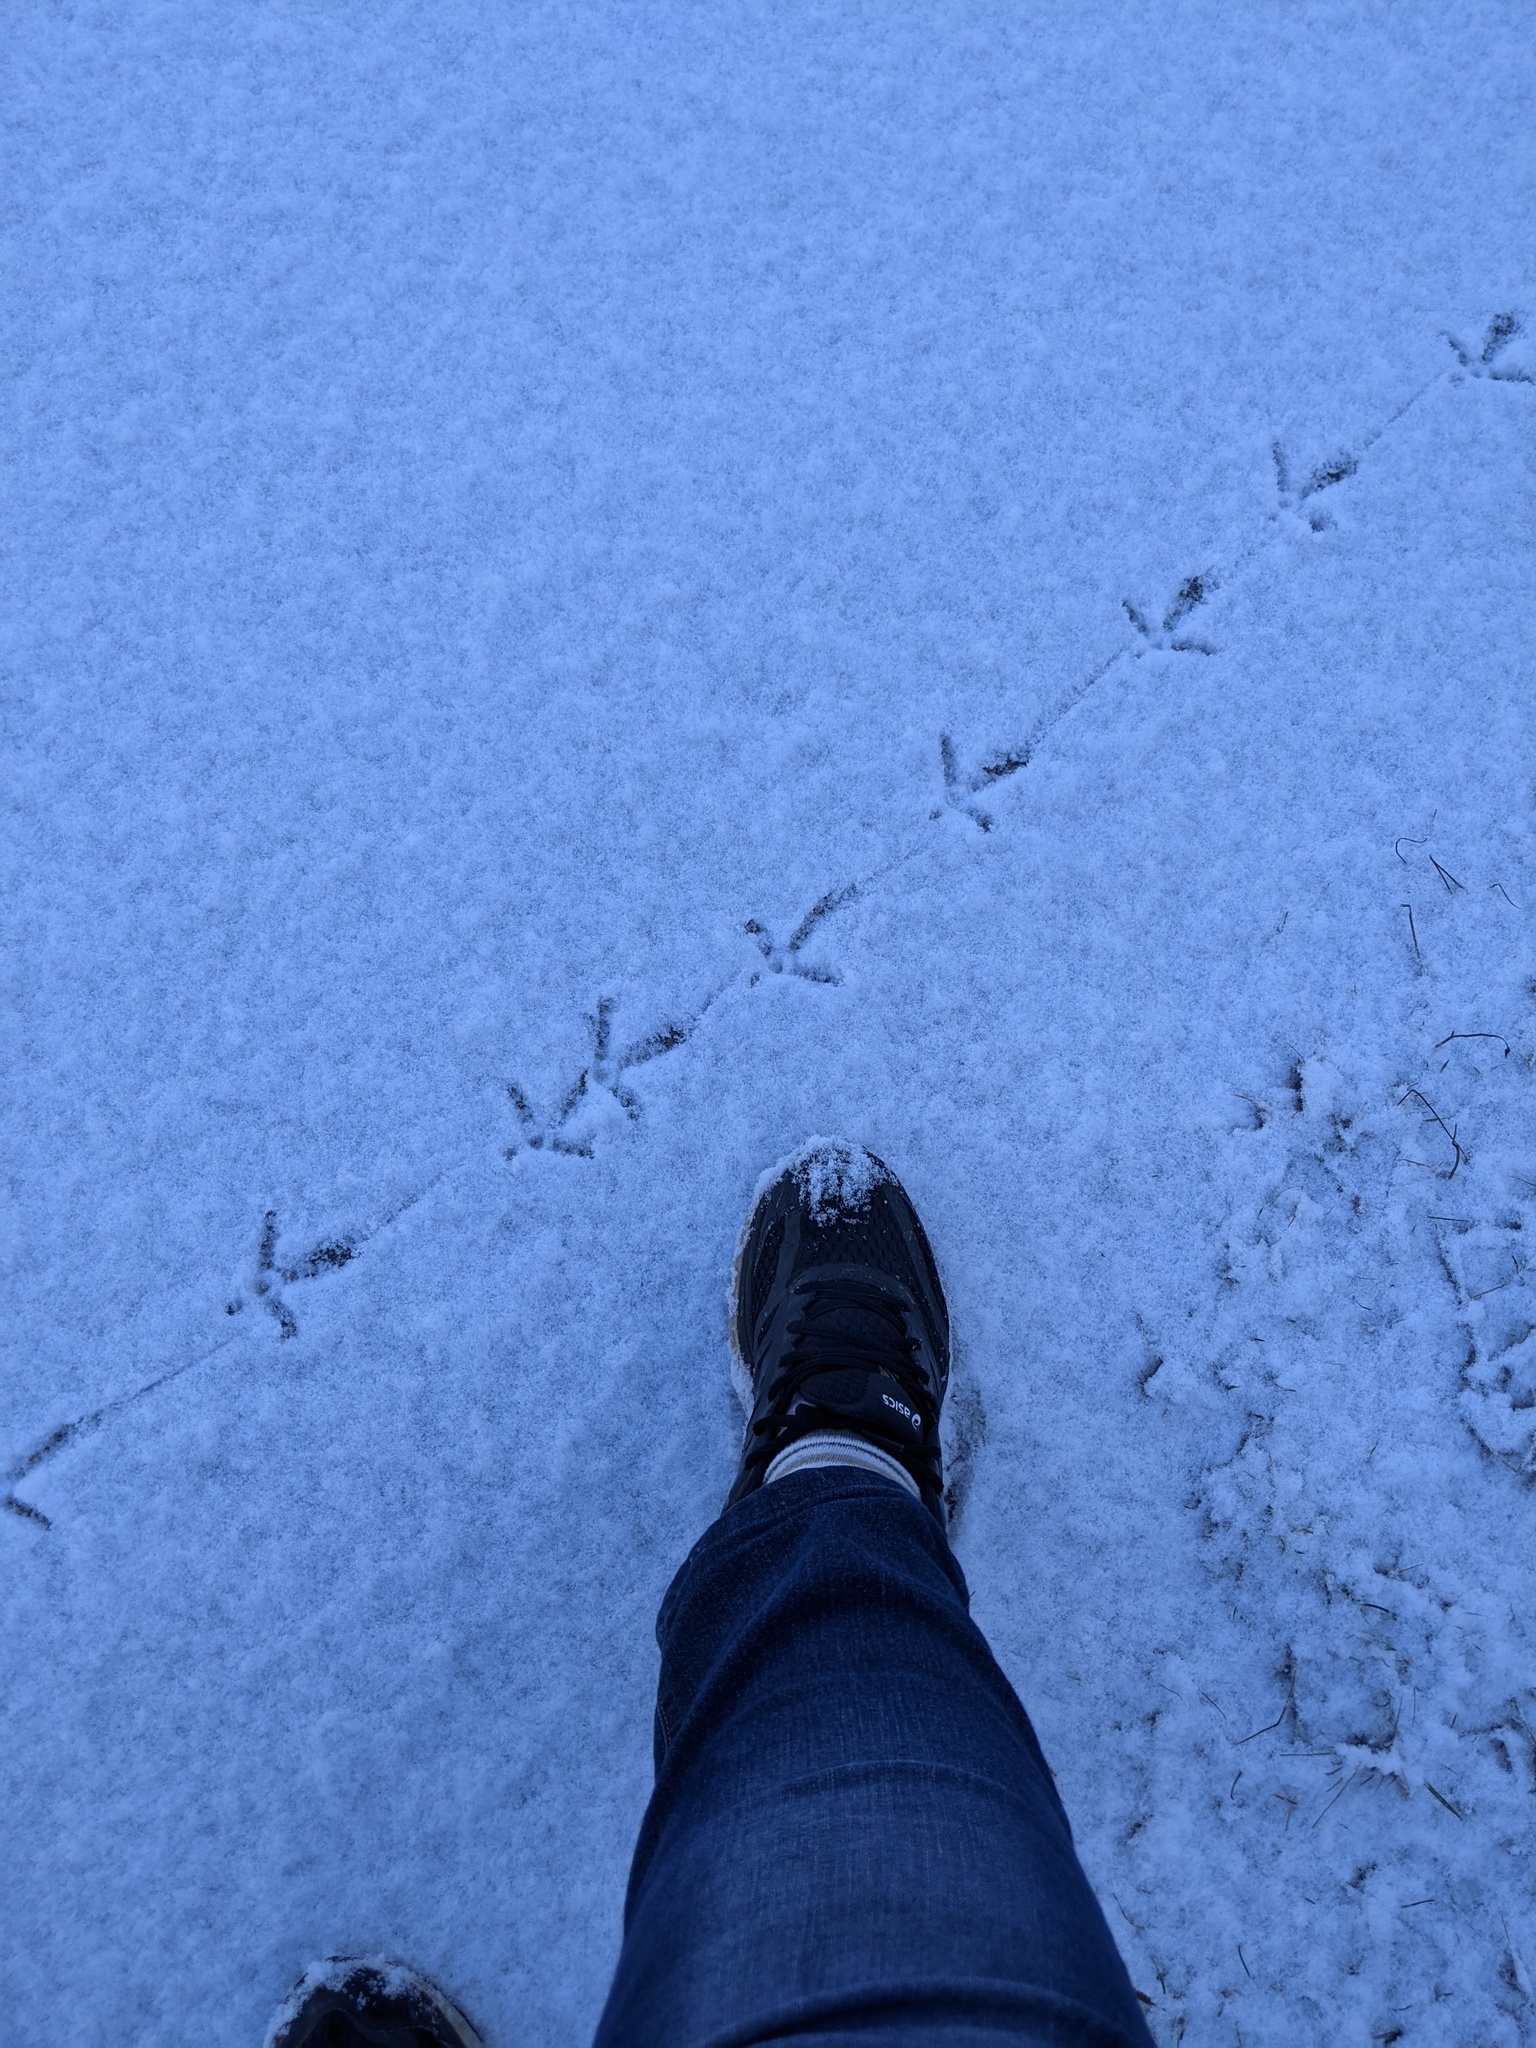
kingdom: Animalia
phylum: Chordata
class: Aves
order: Galliformes
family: Phasianidae
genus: Bonasa
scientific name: Bonasa umbellus
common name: Ruffed grouse
